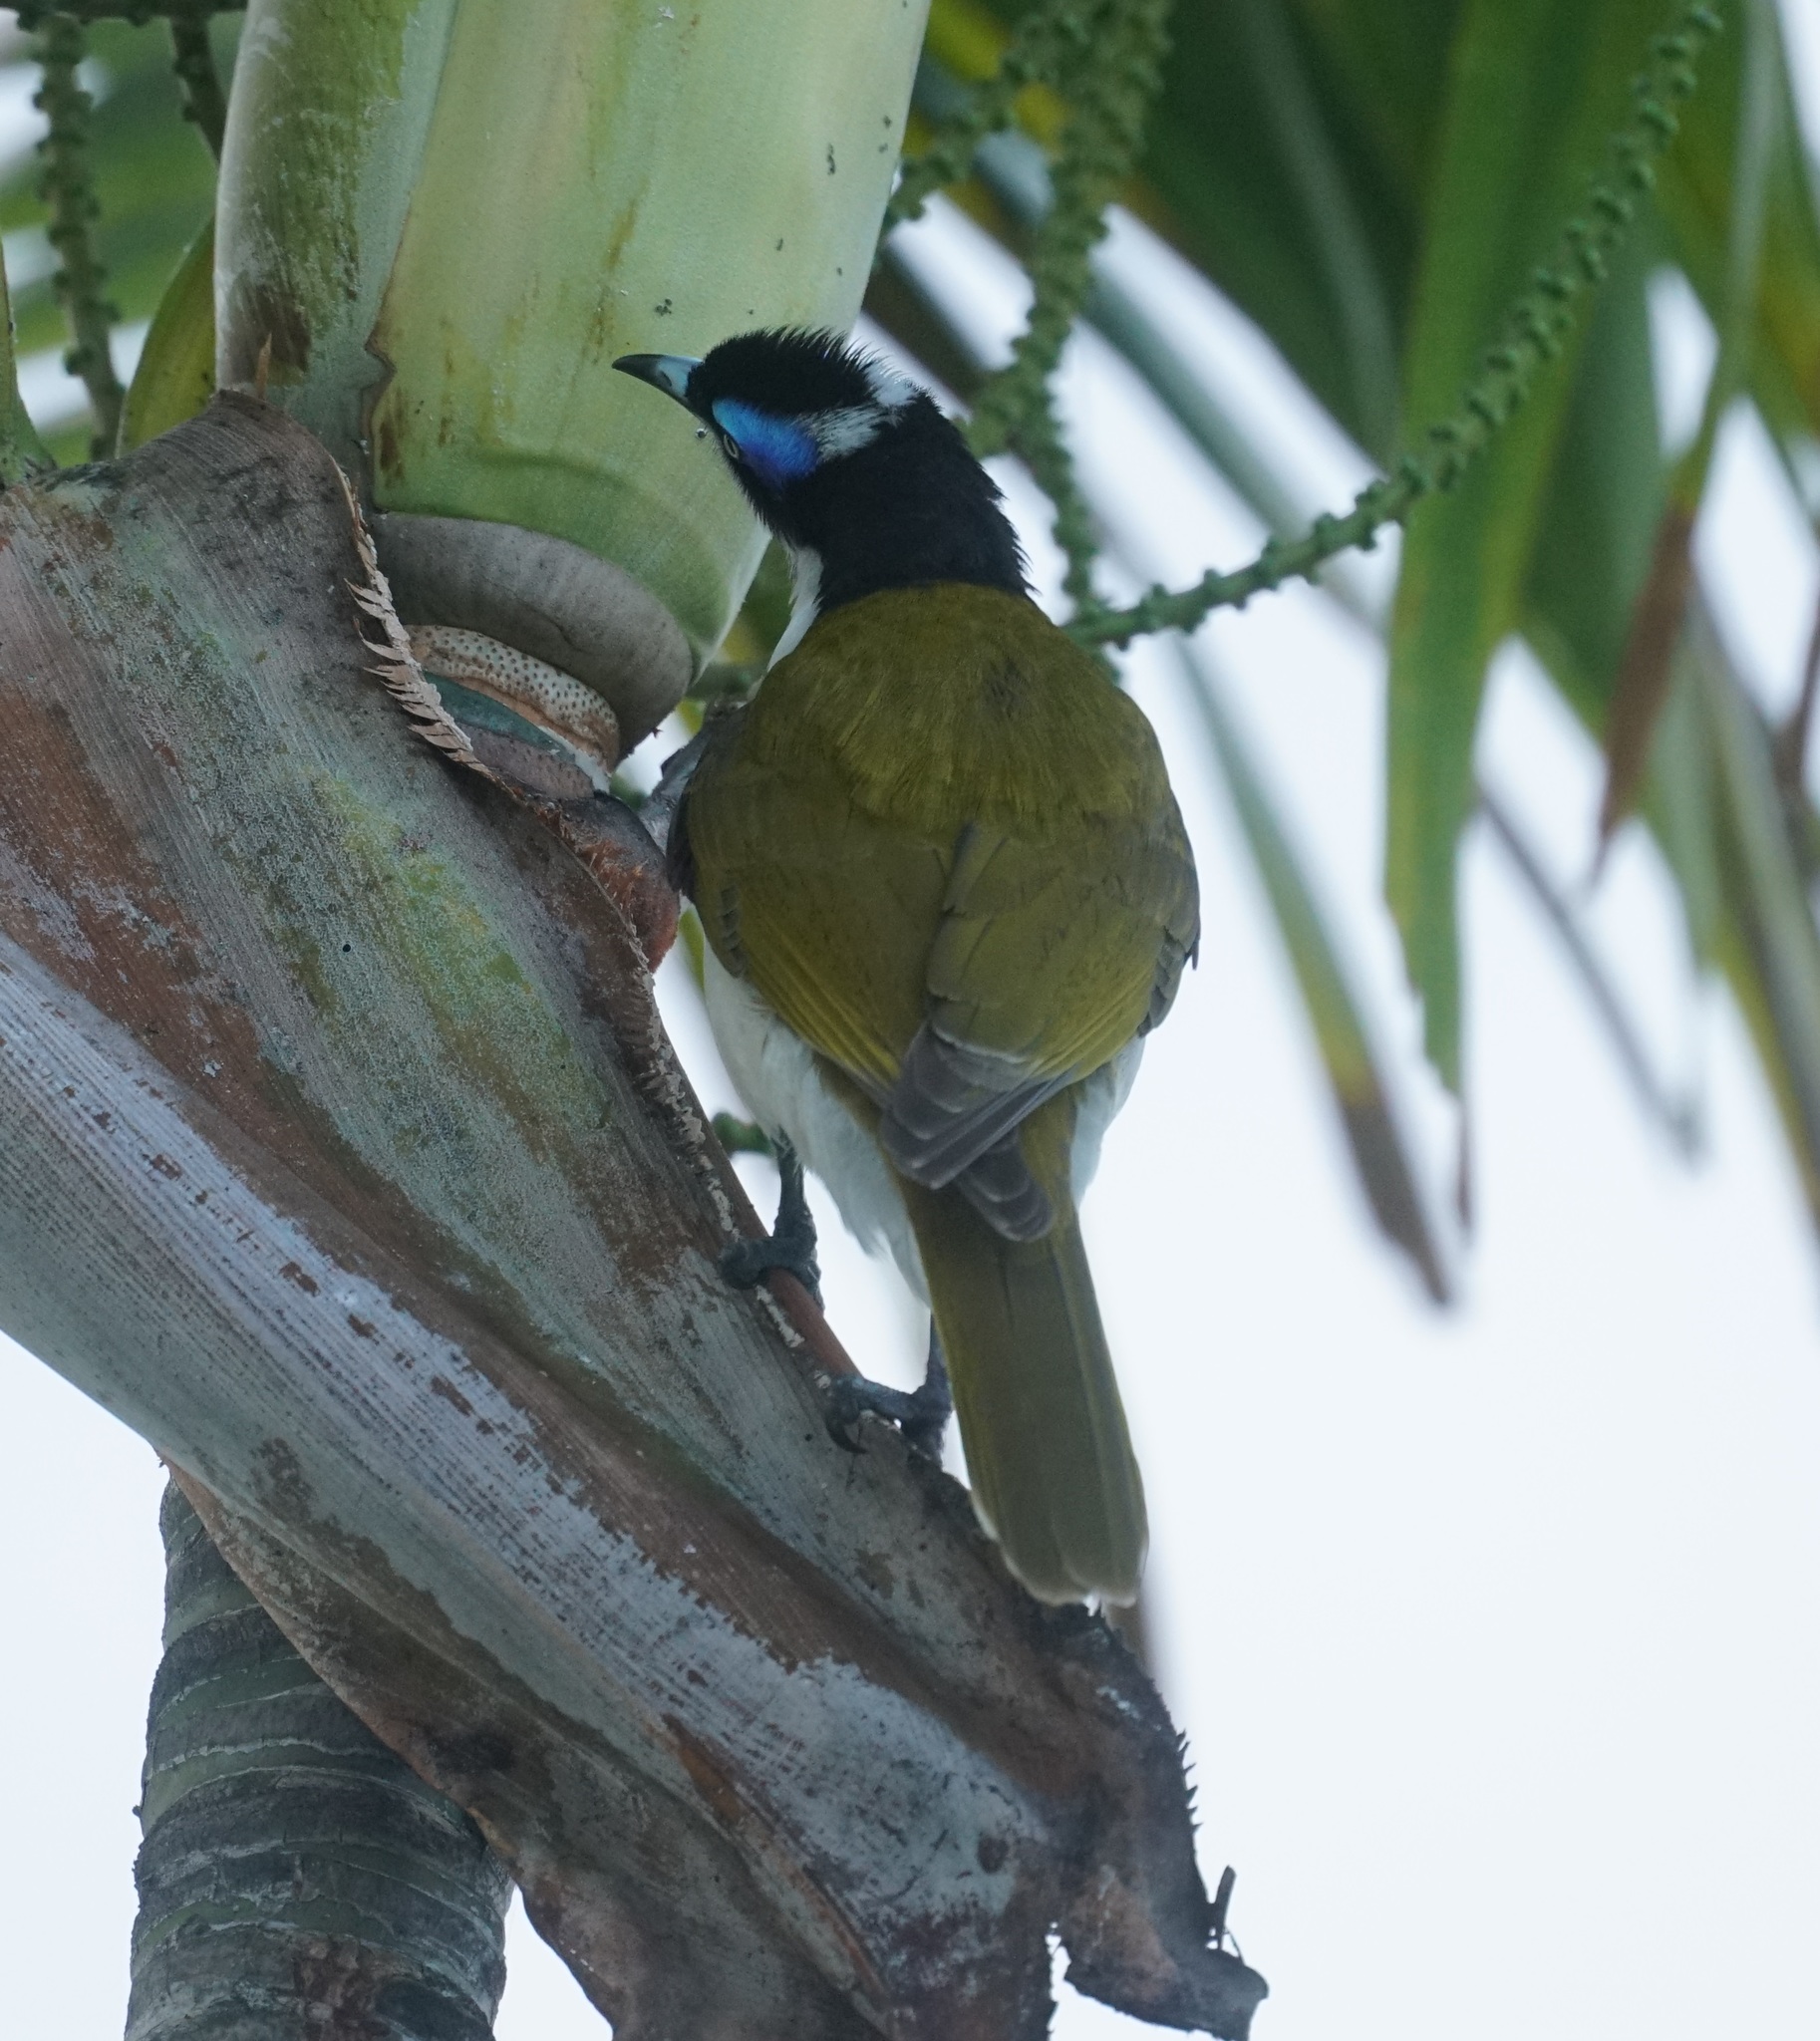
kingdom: Animalia
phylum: Chordata
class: Aves
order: Passeriformes
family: Meliphagidae
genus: Entomyzon
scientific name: Entomyzon cyanotis
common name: Blue-faced honeyeater
